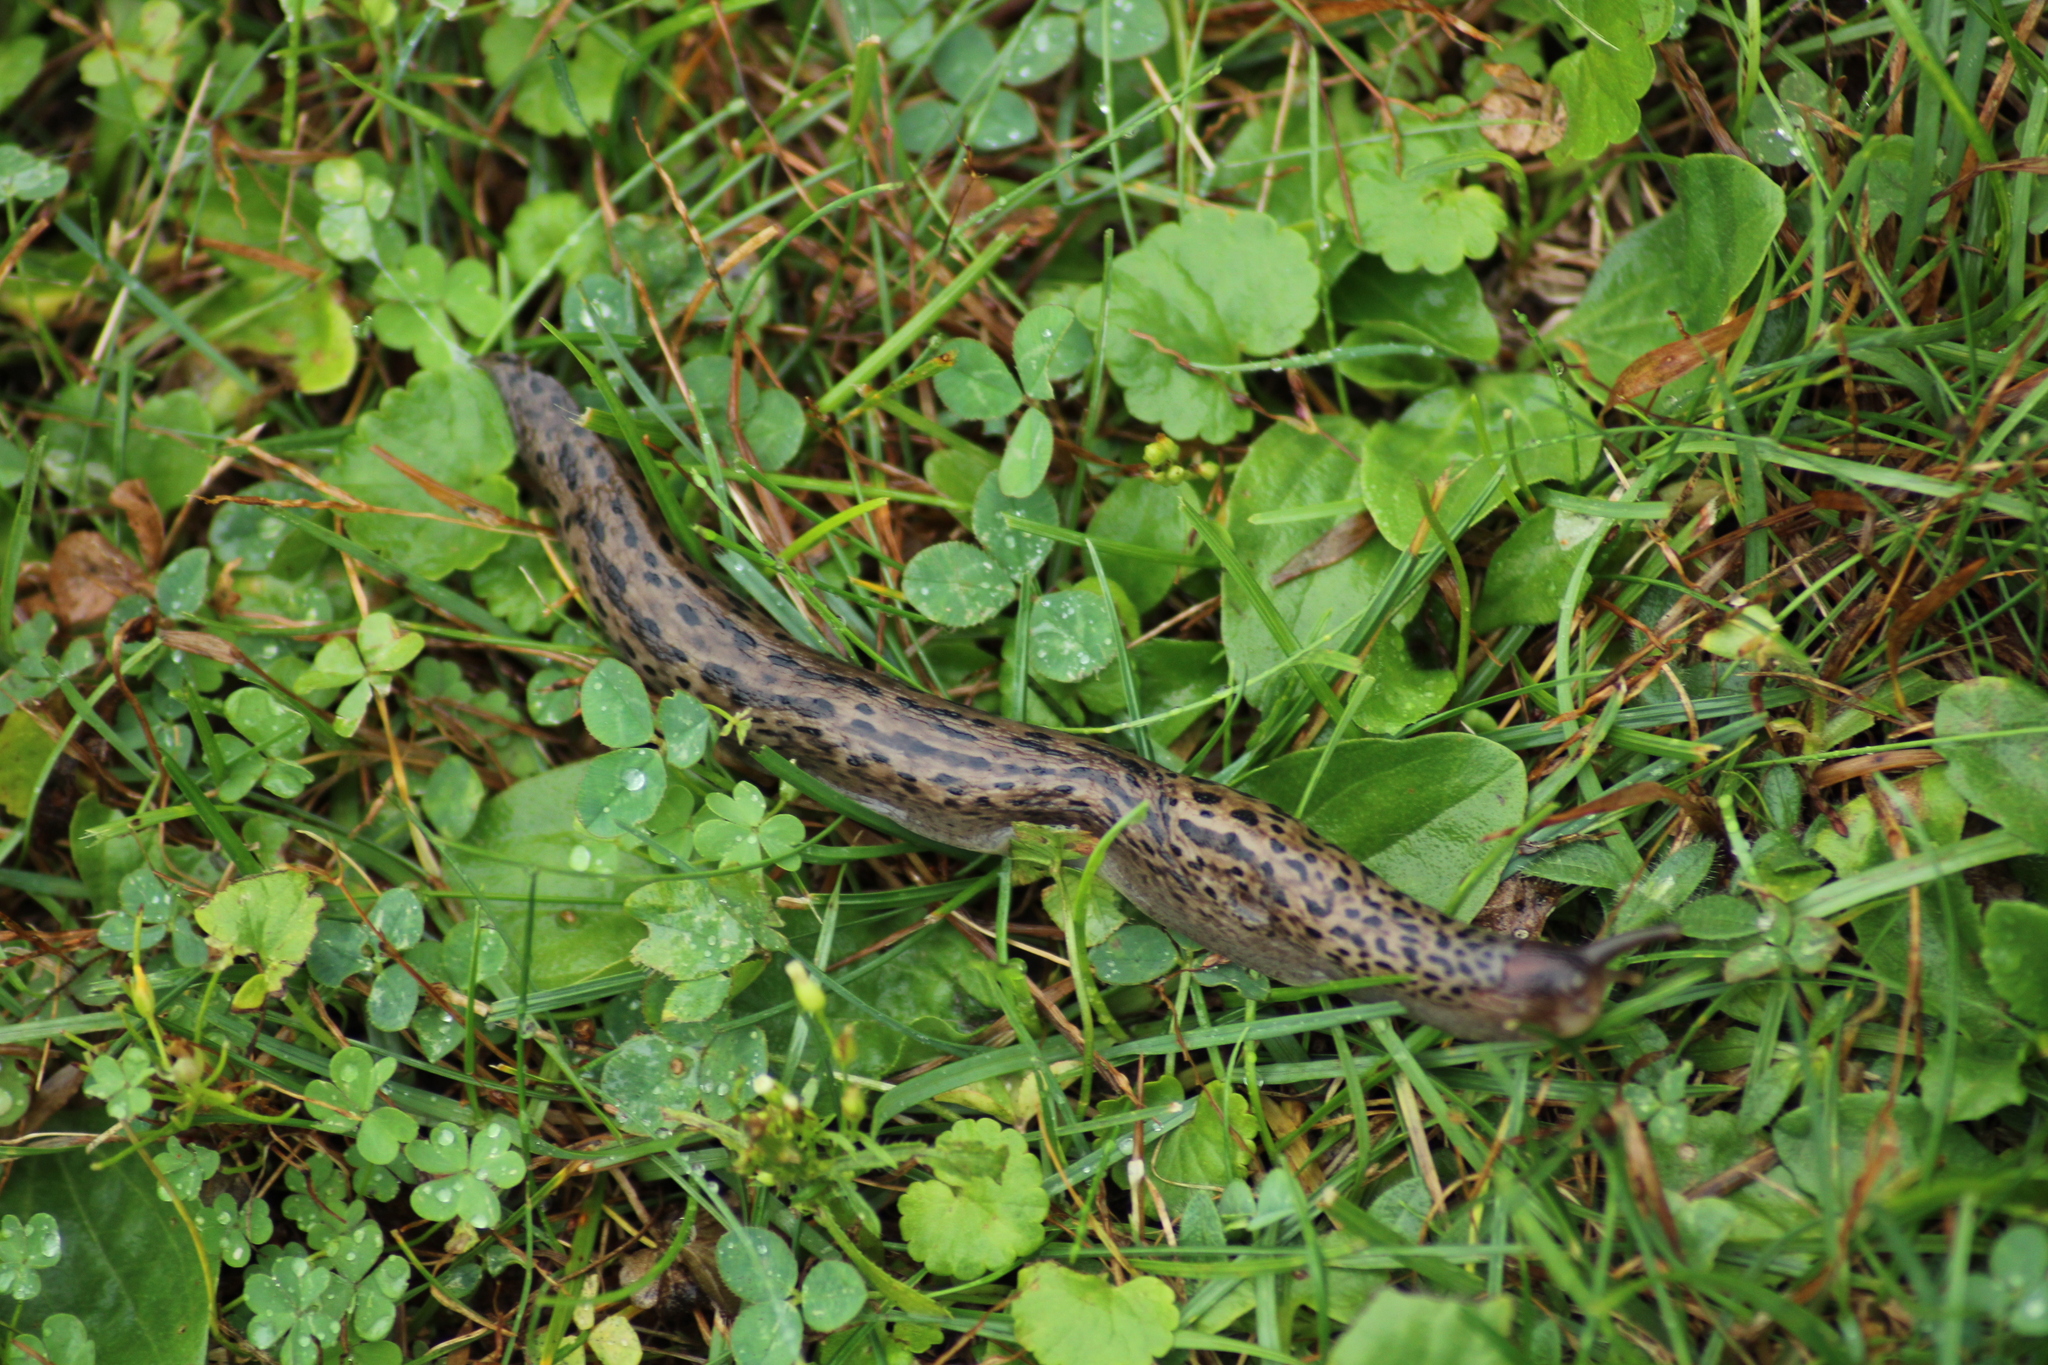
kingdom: Animalia
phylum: Mollusca
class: Gastropoda
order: Stylommatophora
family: Limacidae
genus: Limax
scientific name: Limax maximus
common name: Great grey slug
